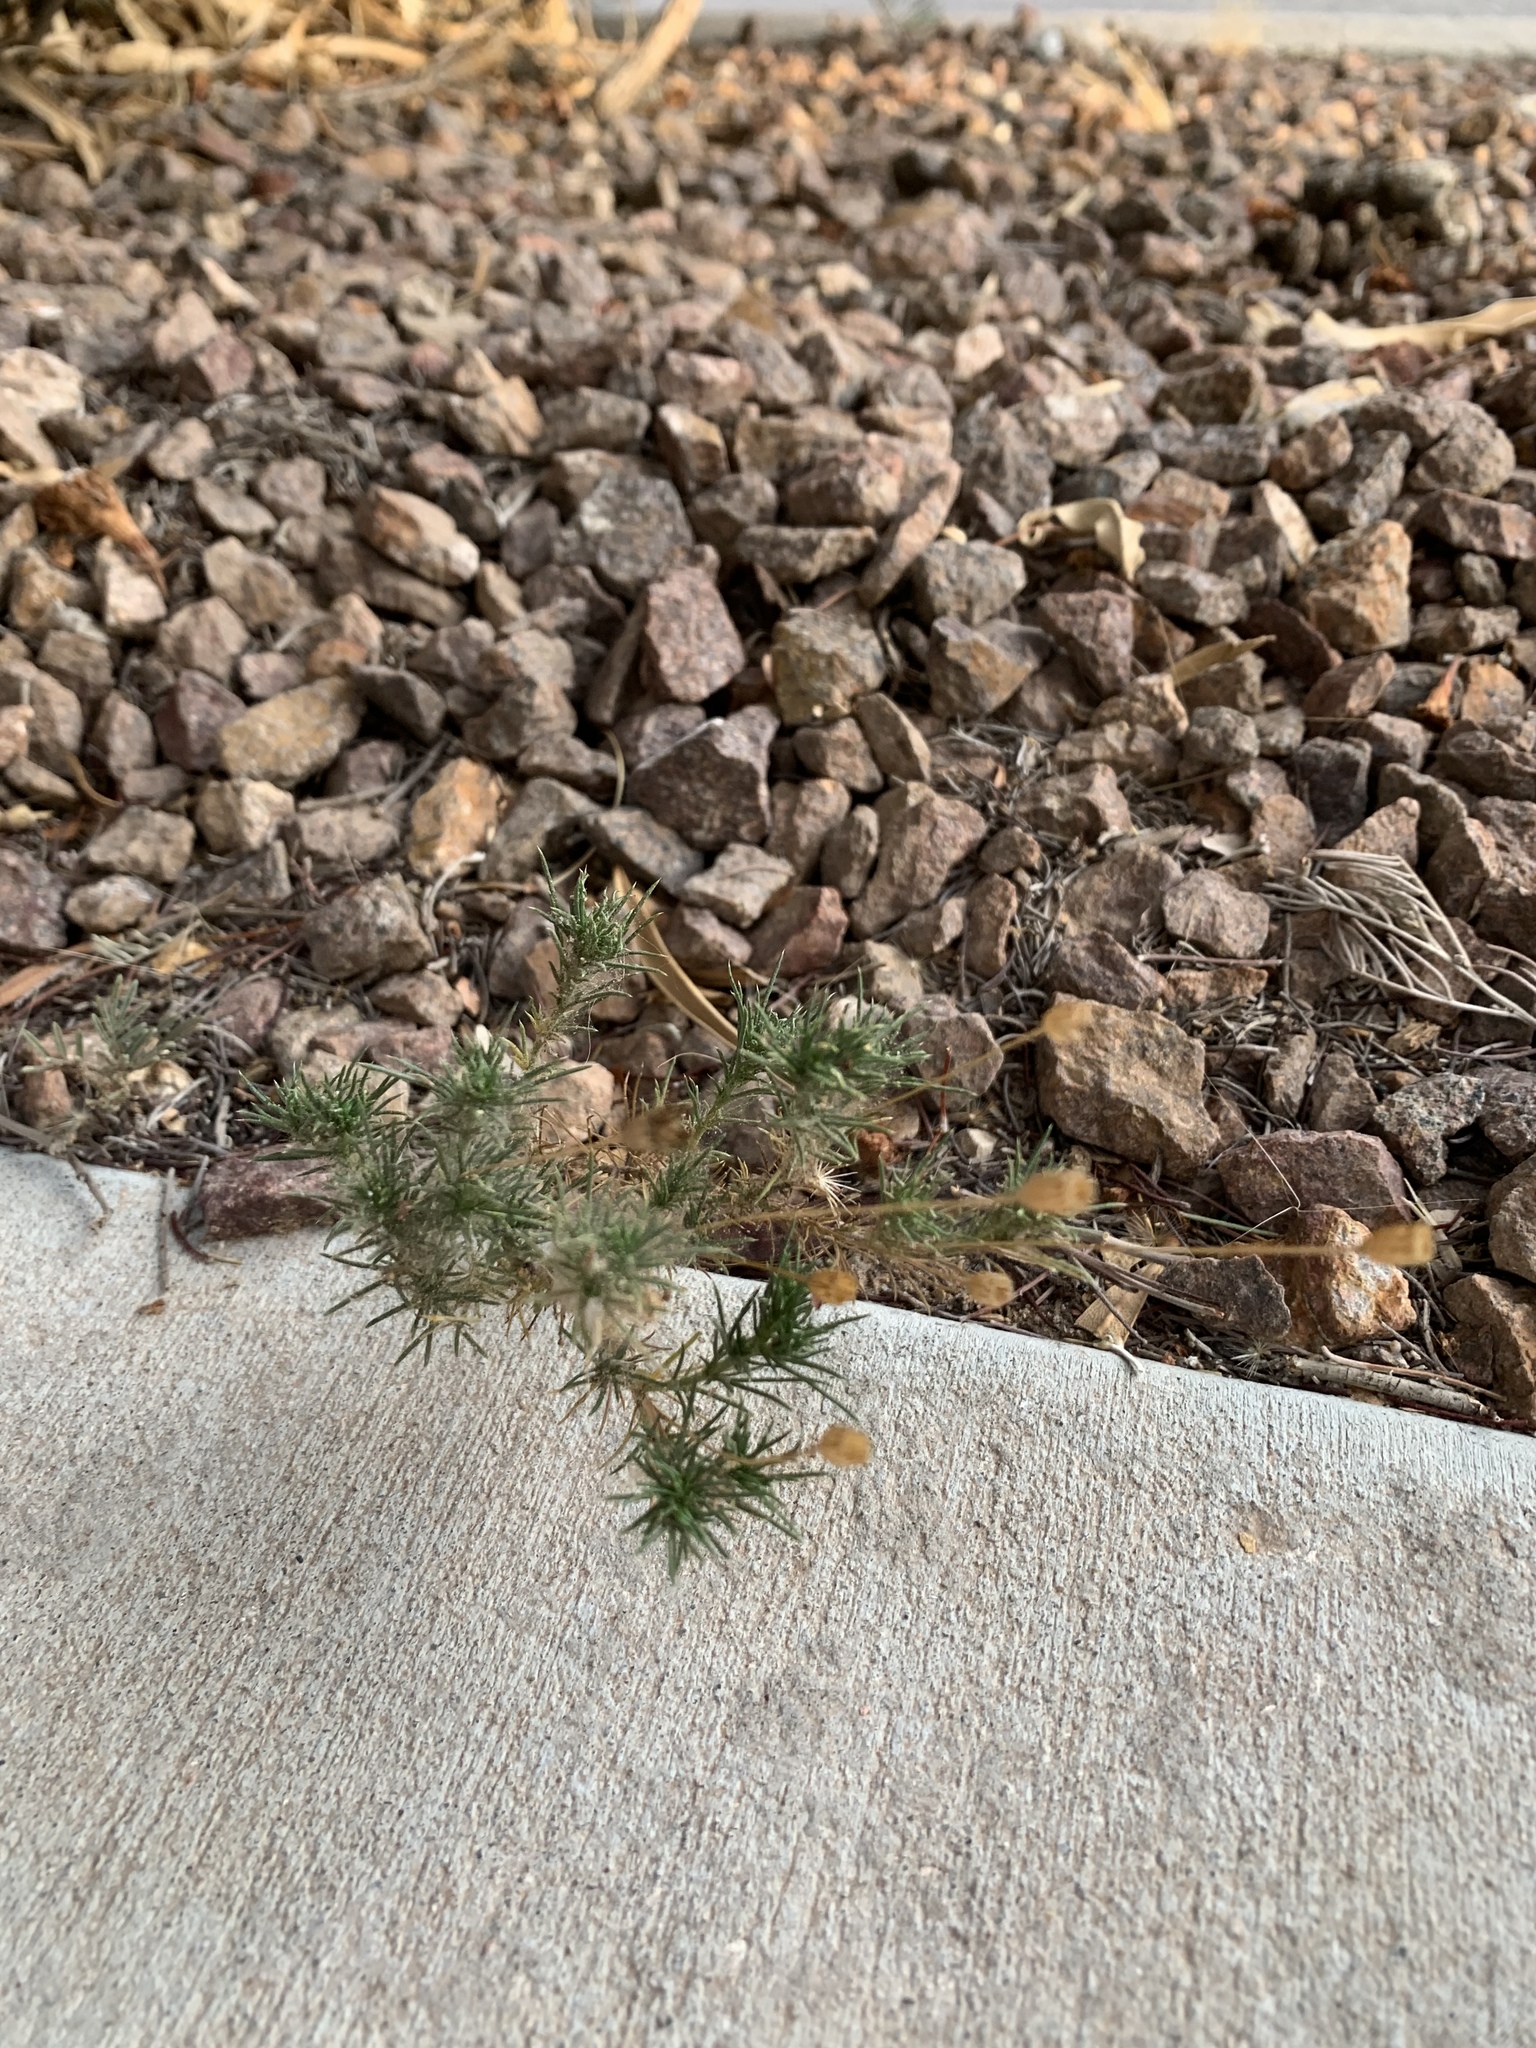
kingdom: Plantae
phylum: Tracheophyta
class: Magnoliopsida
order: Asterales
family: Asteraceae
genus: Thymophylla
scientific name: Thymophylla pentachaeta
